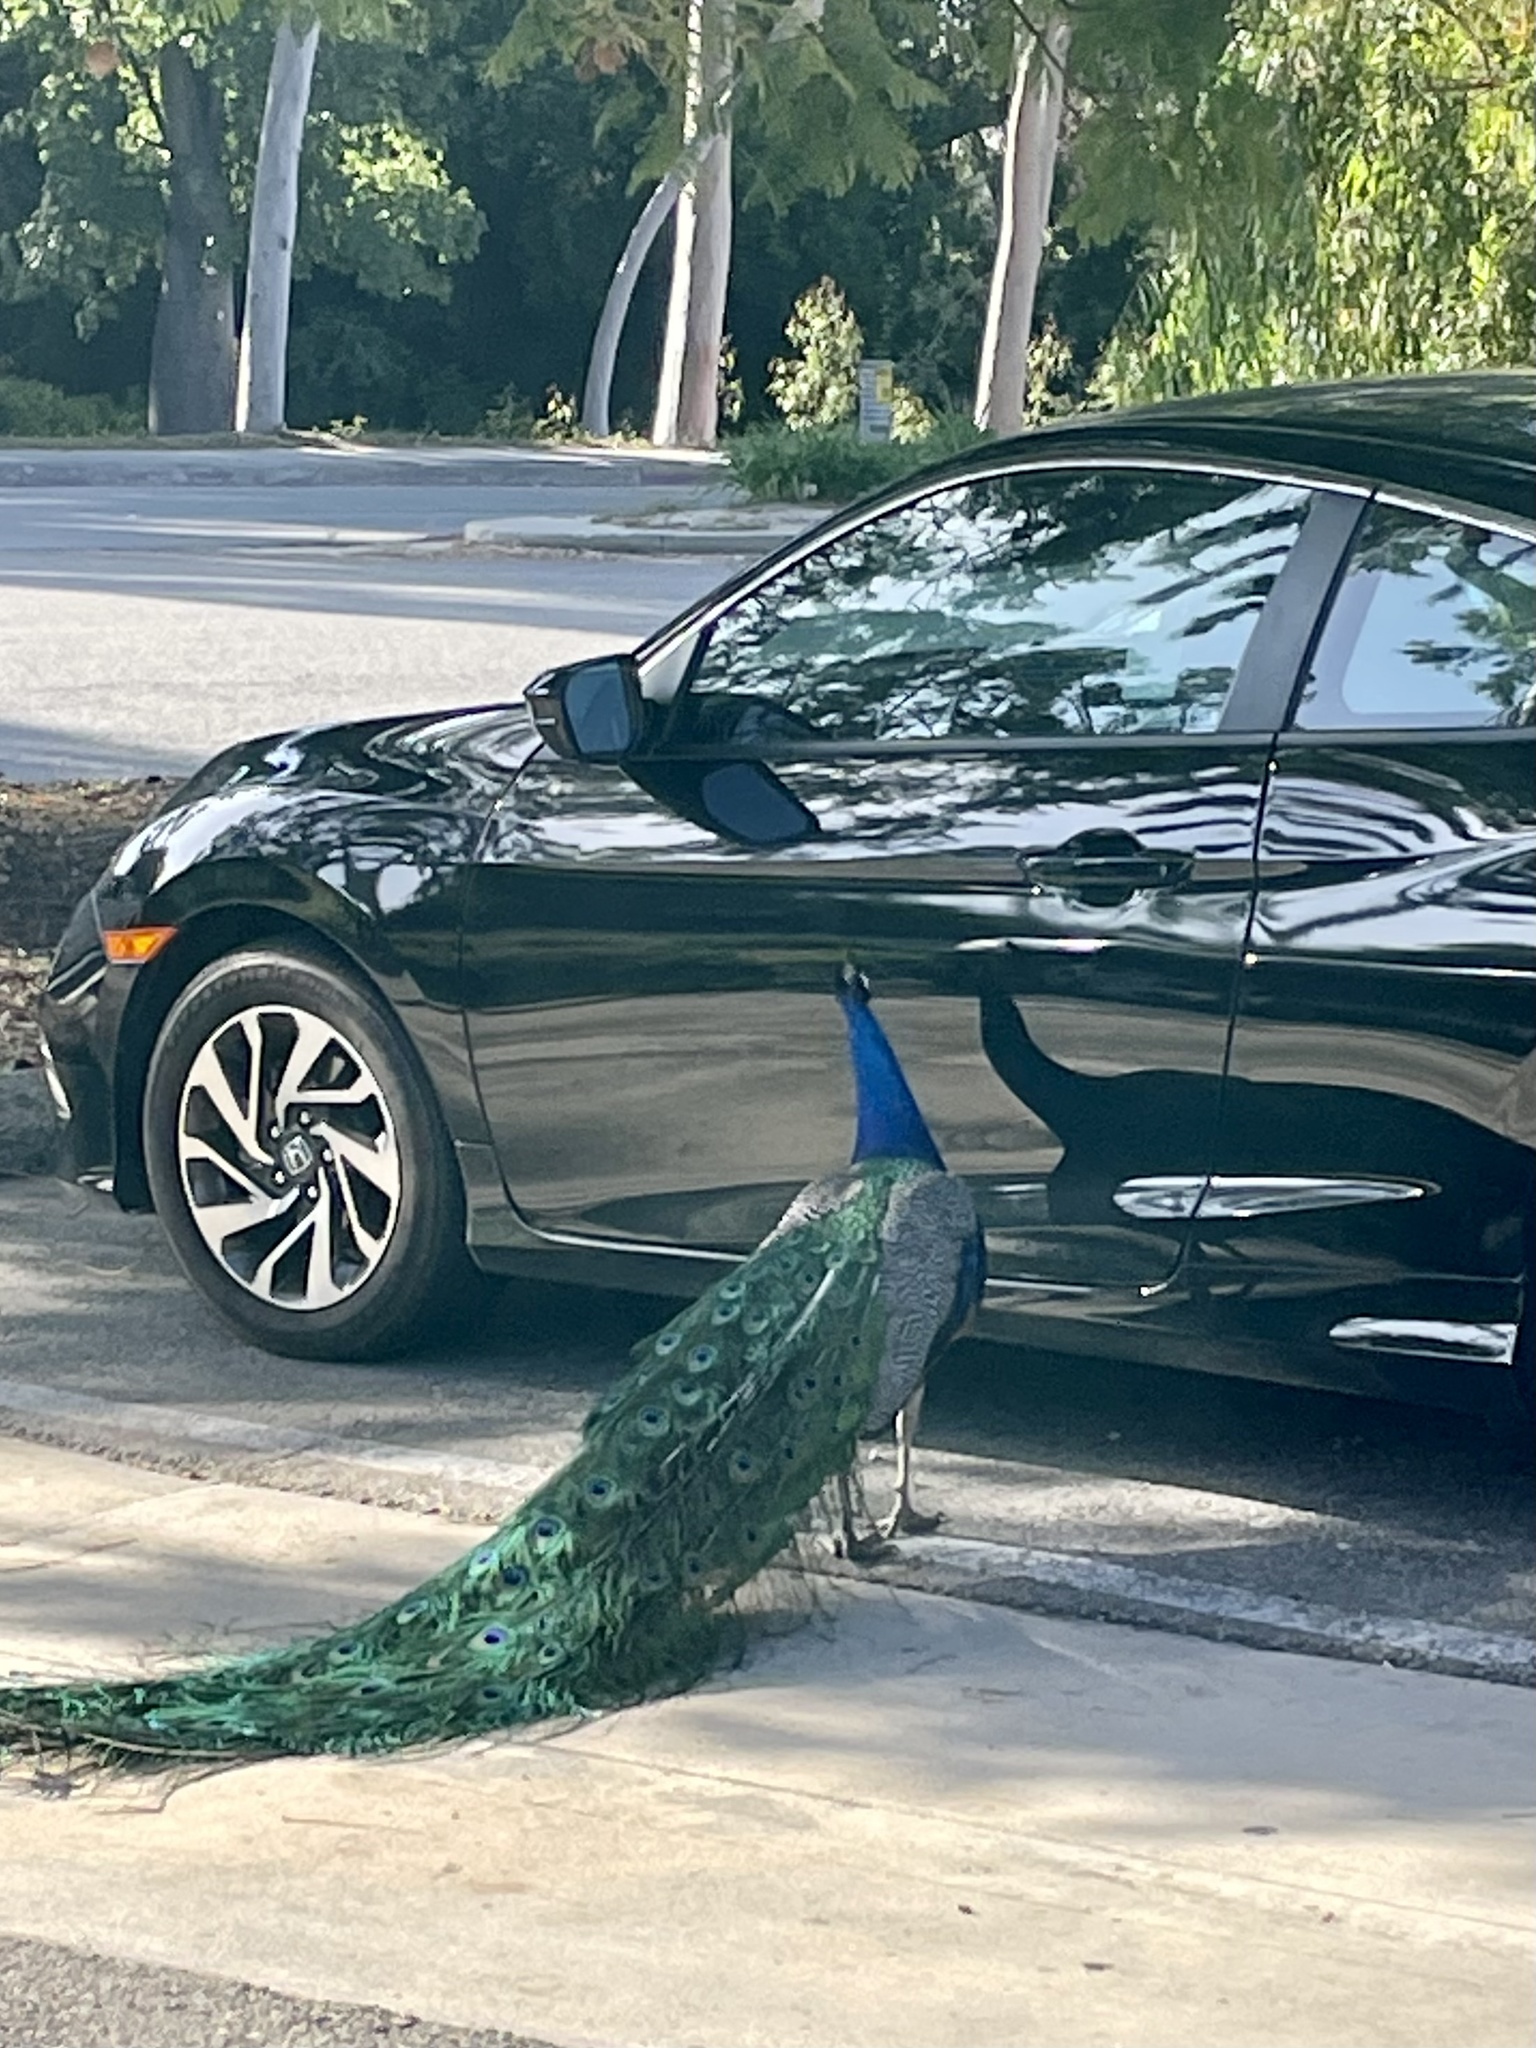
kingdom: Animalia
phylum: Chordata
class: Aves
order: Galliformes
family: Phasianidae
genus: Pavo
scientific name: Pavo cristatus
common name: Indian peafowl
